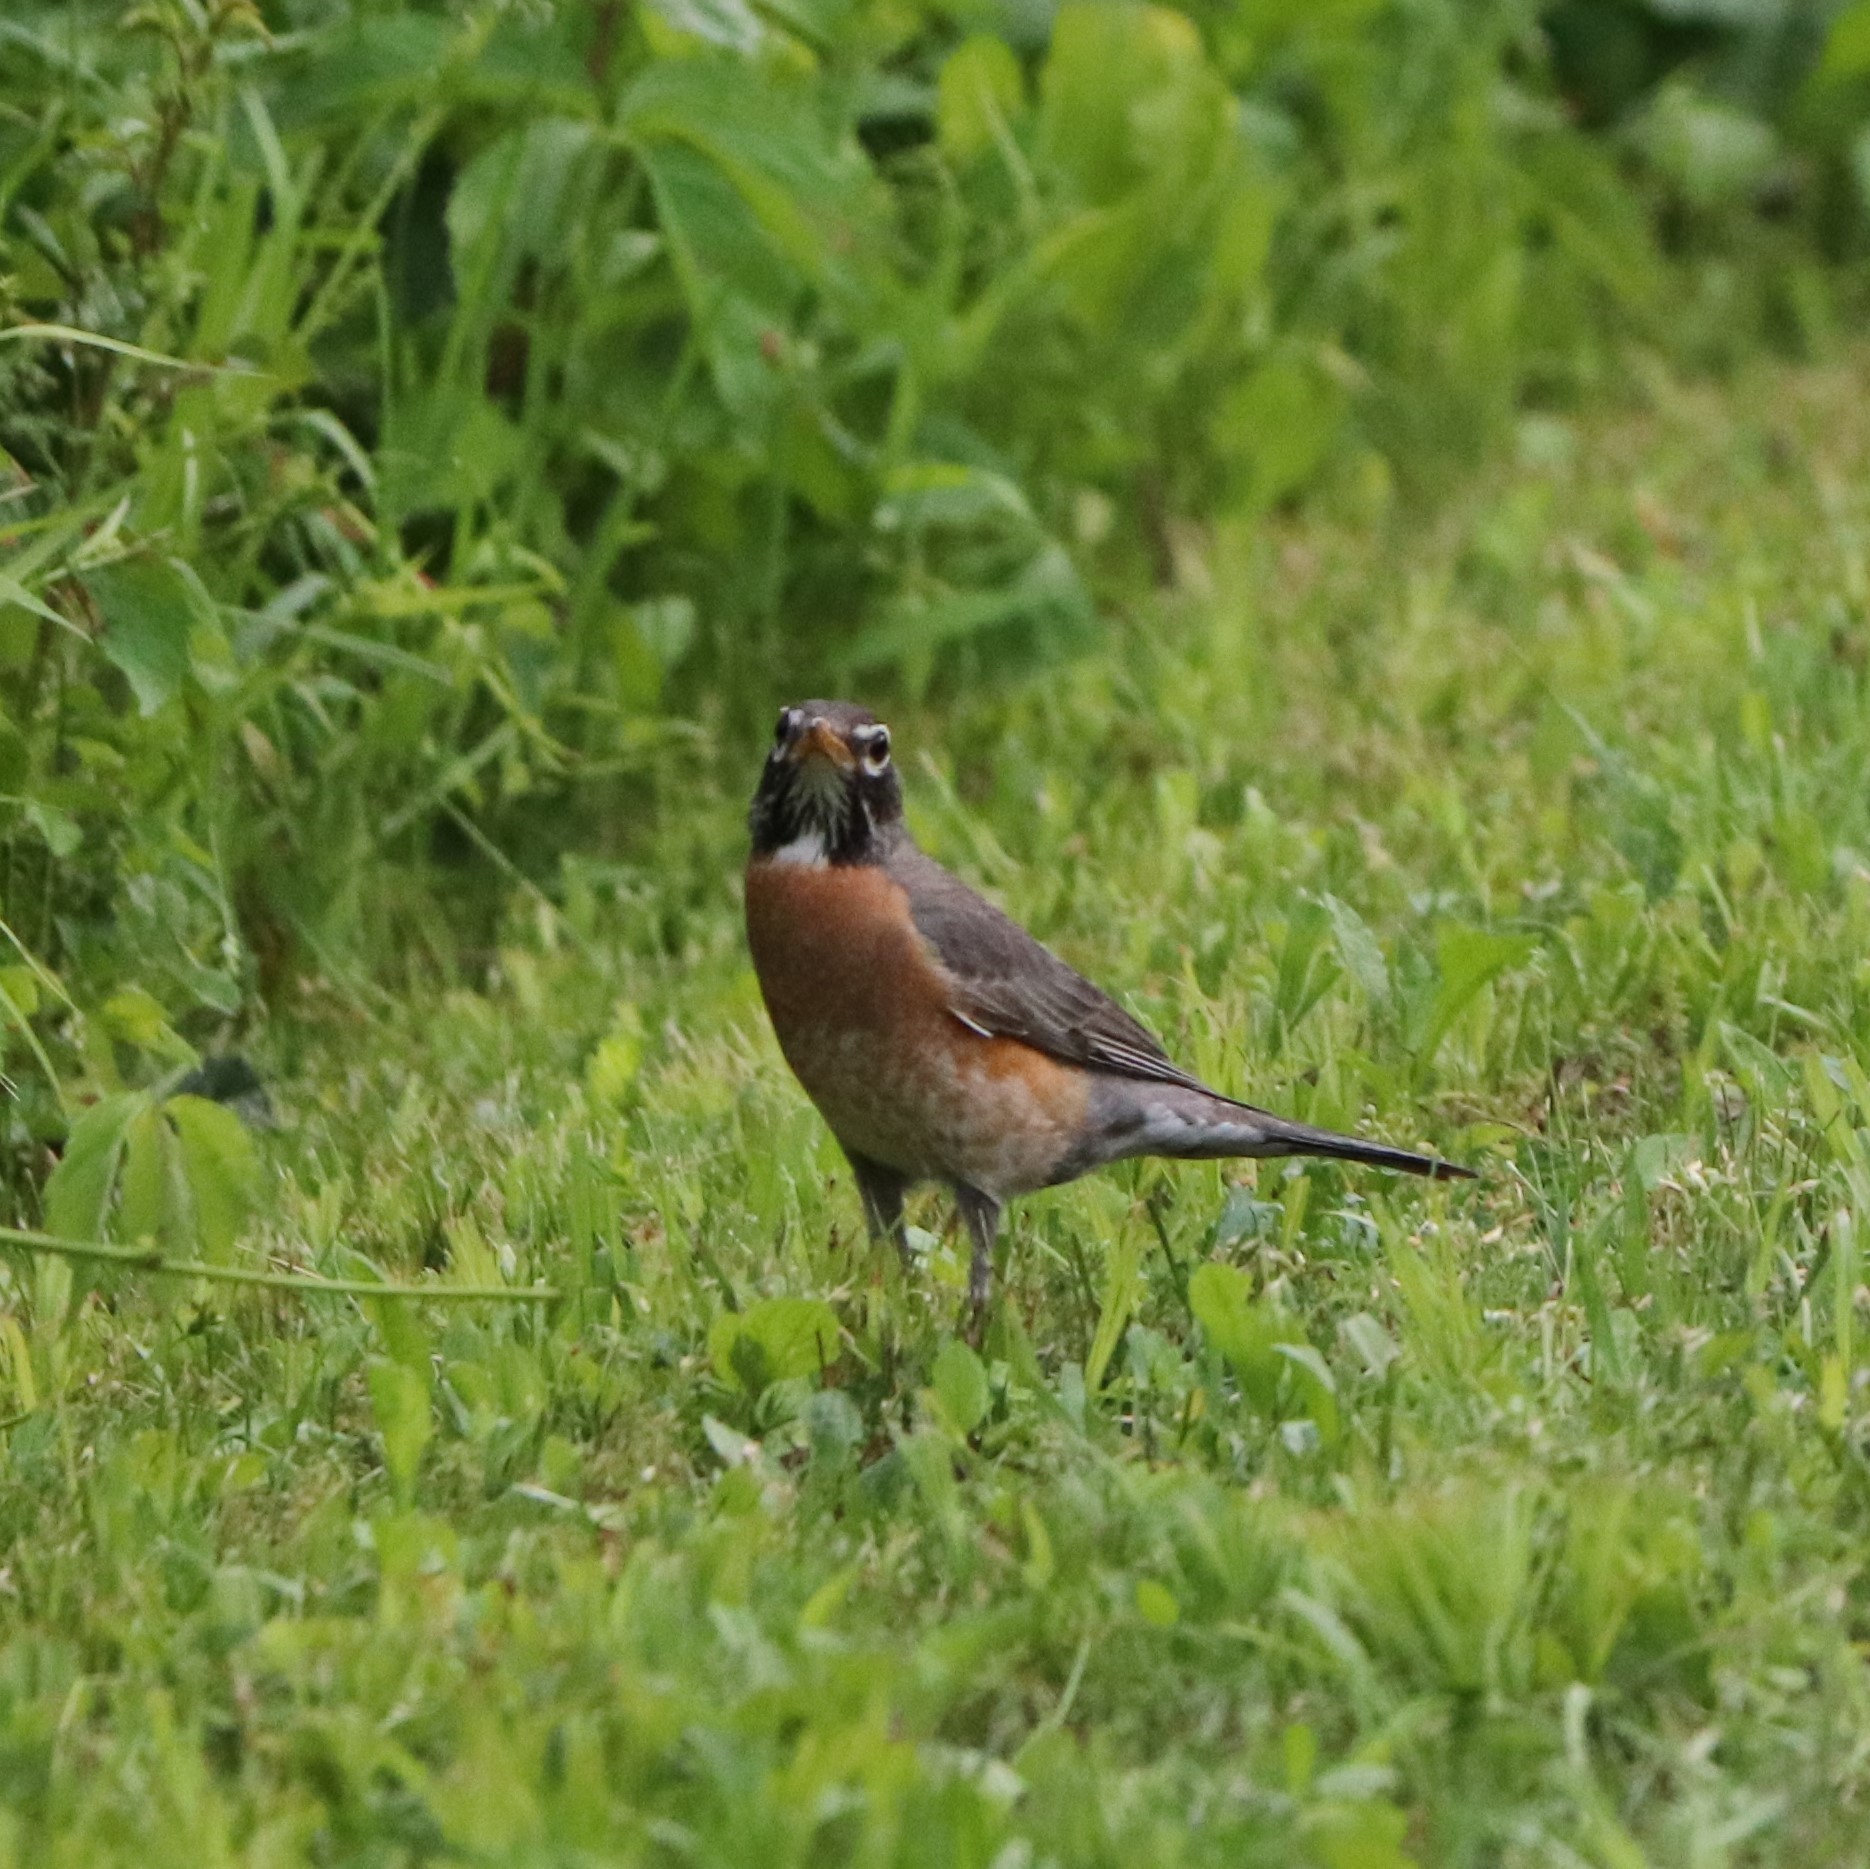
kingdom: Animalia
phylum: Chordata
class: Aves
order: Passeriformes
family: Turdidae
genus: Turdus
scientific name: Turdus migratorius
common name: American robin
